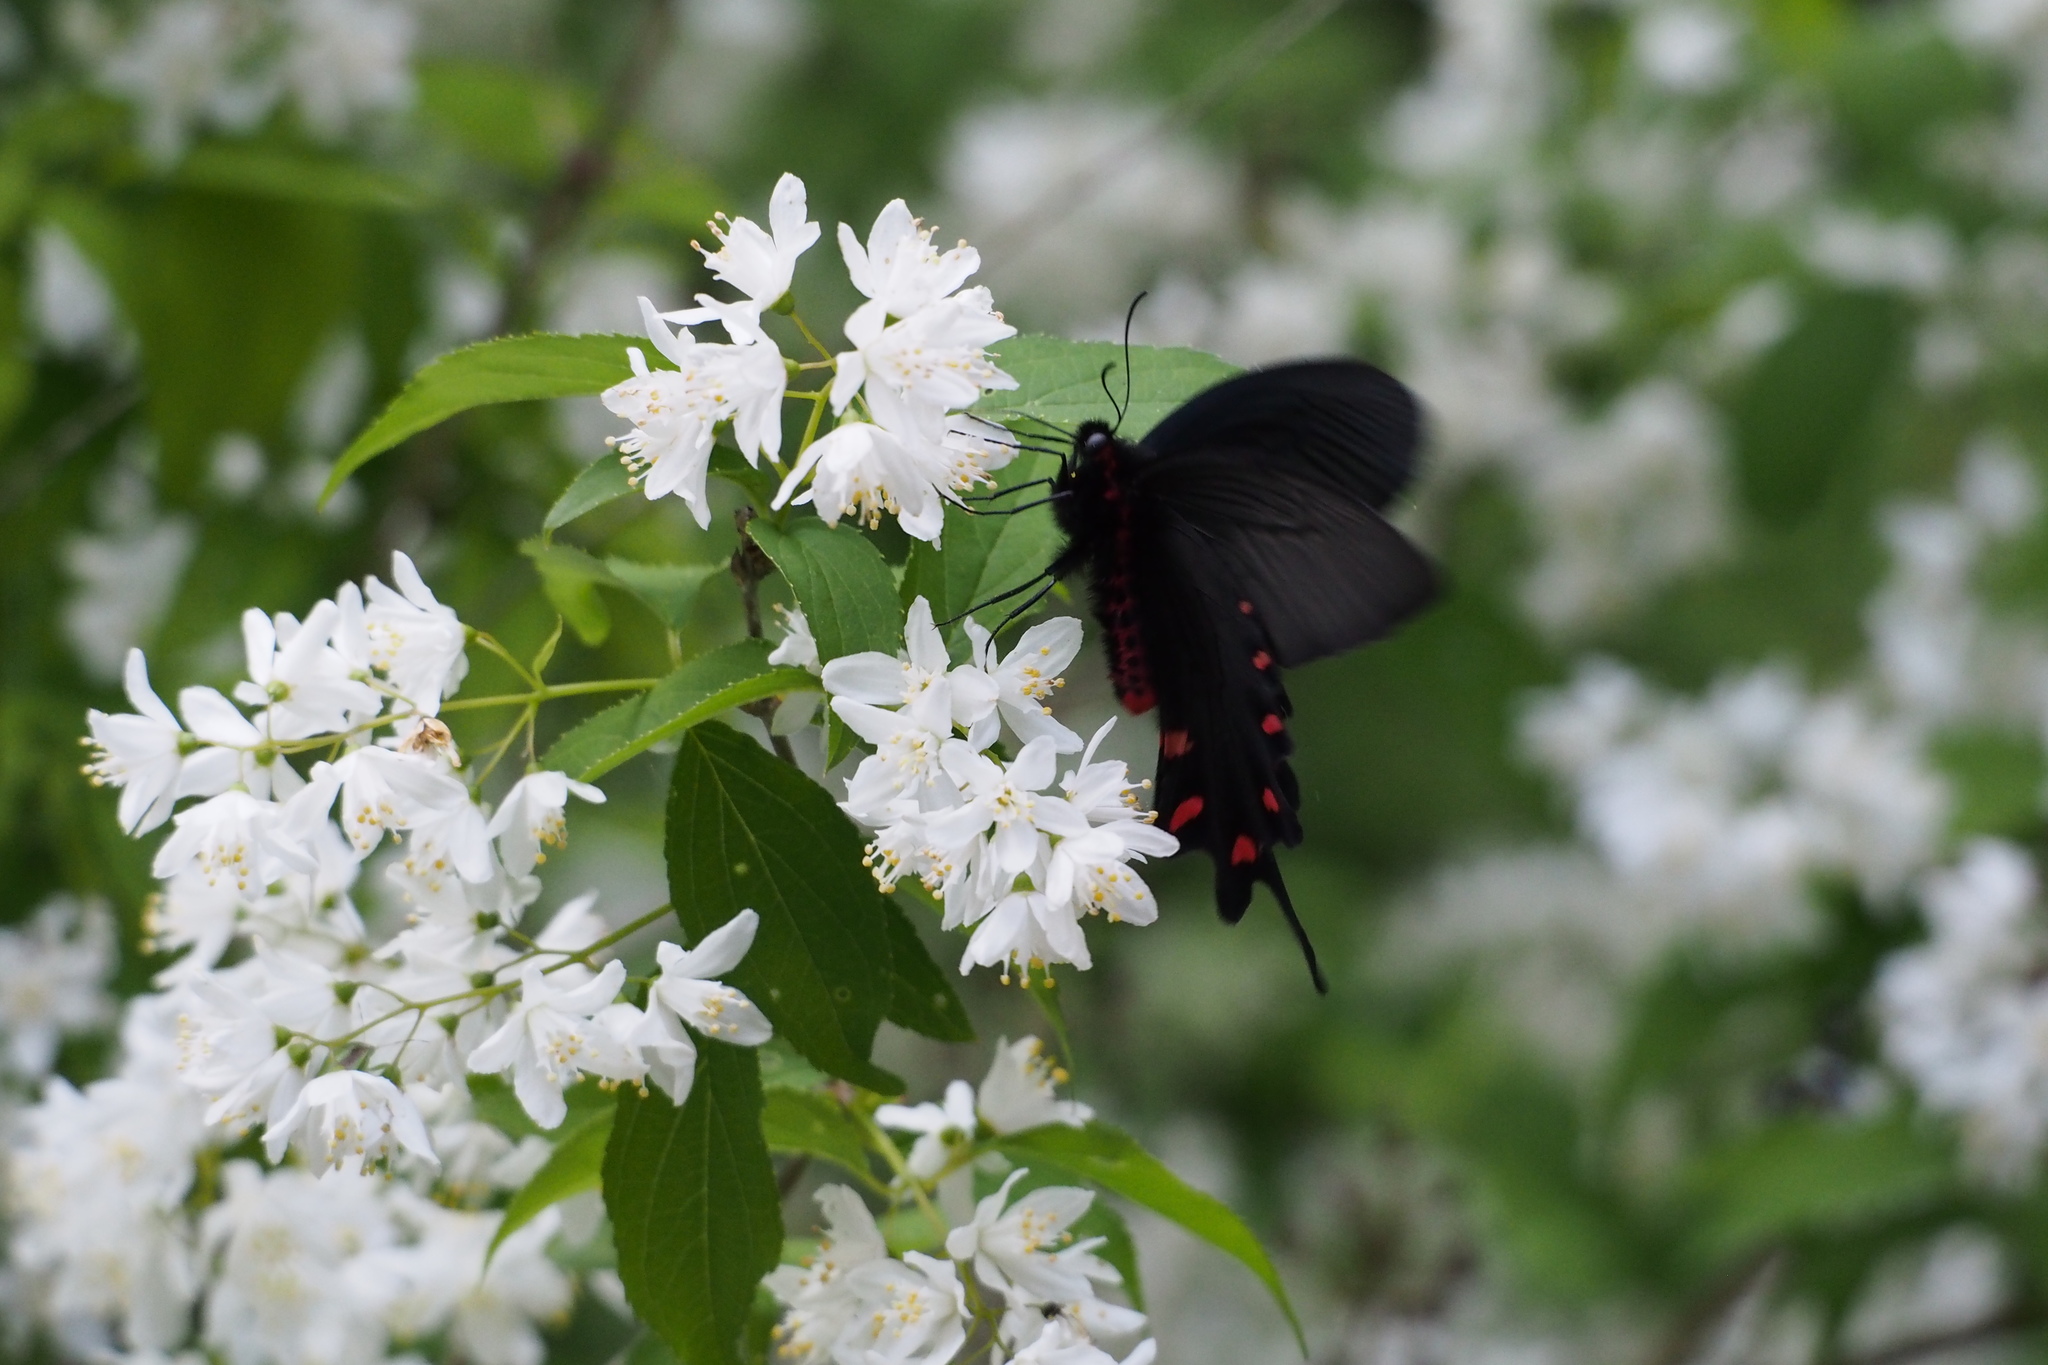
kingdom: Animalia
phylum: Arthropoda
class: Insecta
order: Lepidoptera
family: Papilionidae
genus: Byasa
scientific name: Byasa alcinous
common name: Chinese windmill
